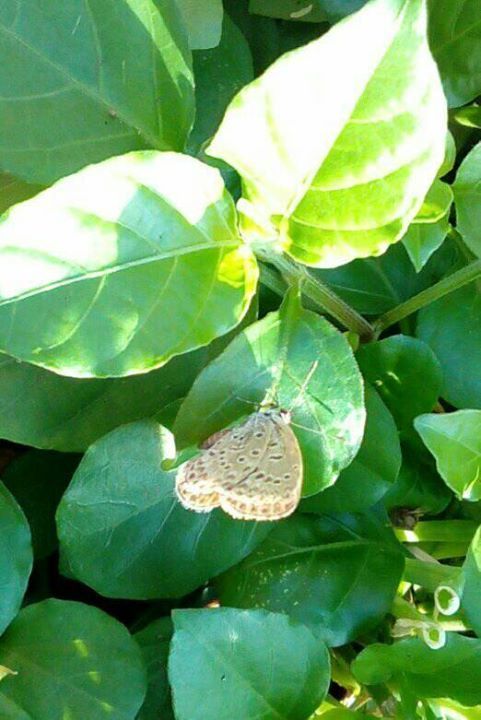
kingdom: Animalia
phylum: Arthropoda
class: Insecta
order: Lepidoptera
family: Lycaenidae
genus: Pseudozizeeria
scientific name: Pseudozizeeria maha
